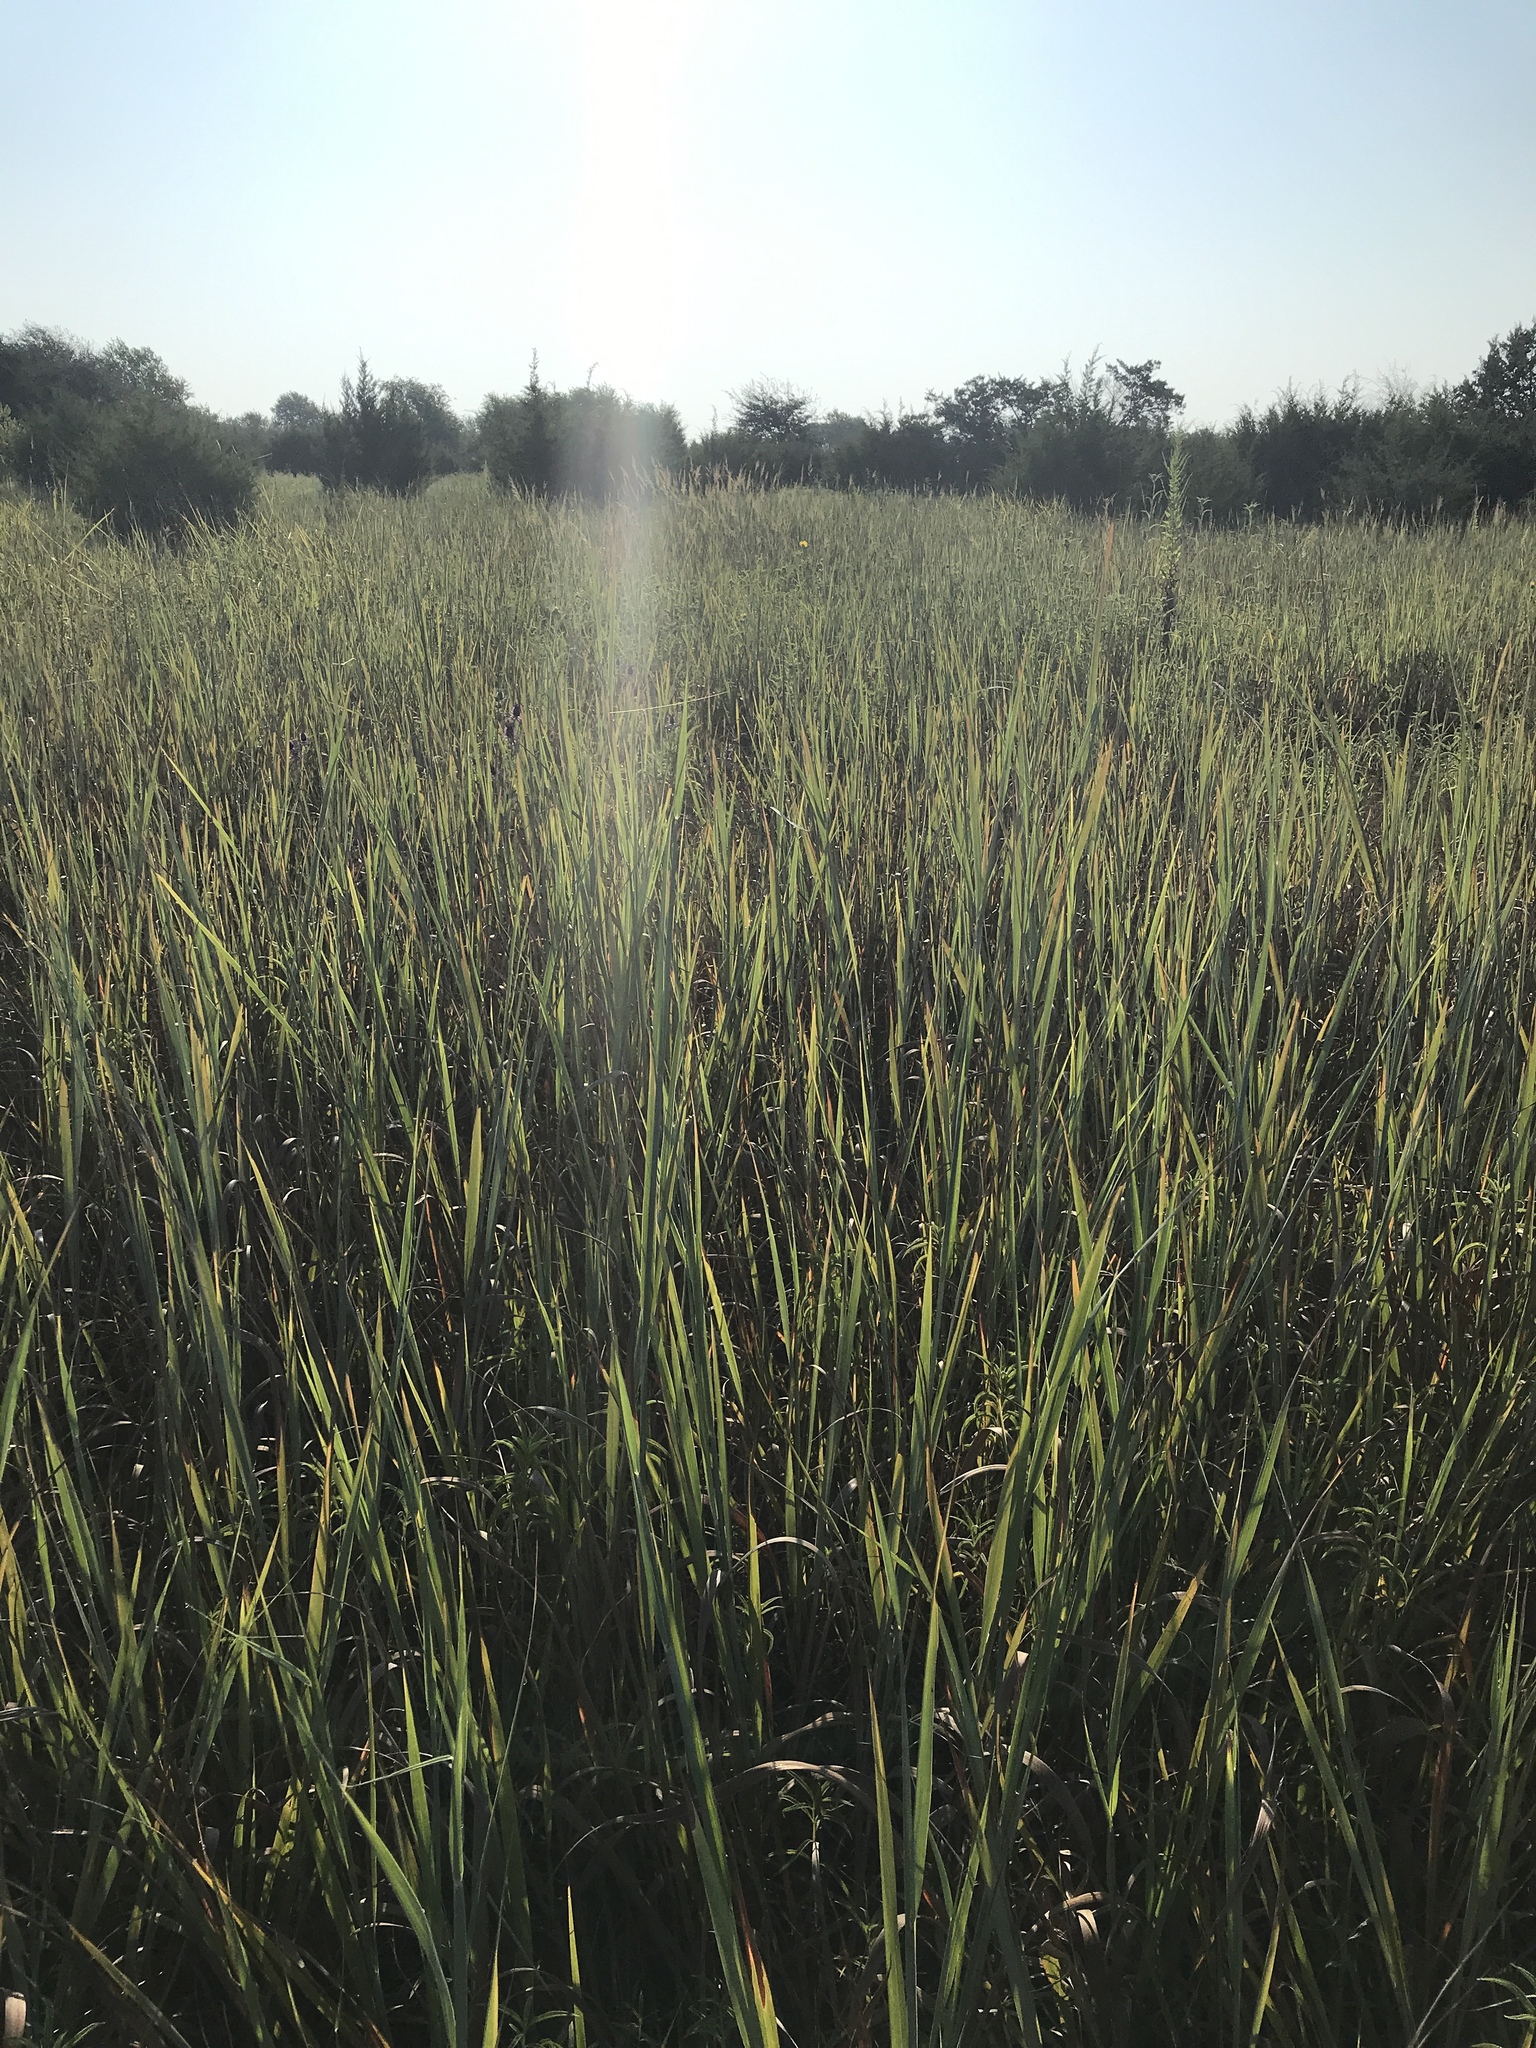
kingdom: Plantae
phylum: Tracheophyta
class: Liliopsida
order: Poales
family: Poaceae
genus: Sorghastrum
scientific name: Sorghastrum nutans
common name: Indian grass
